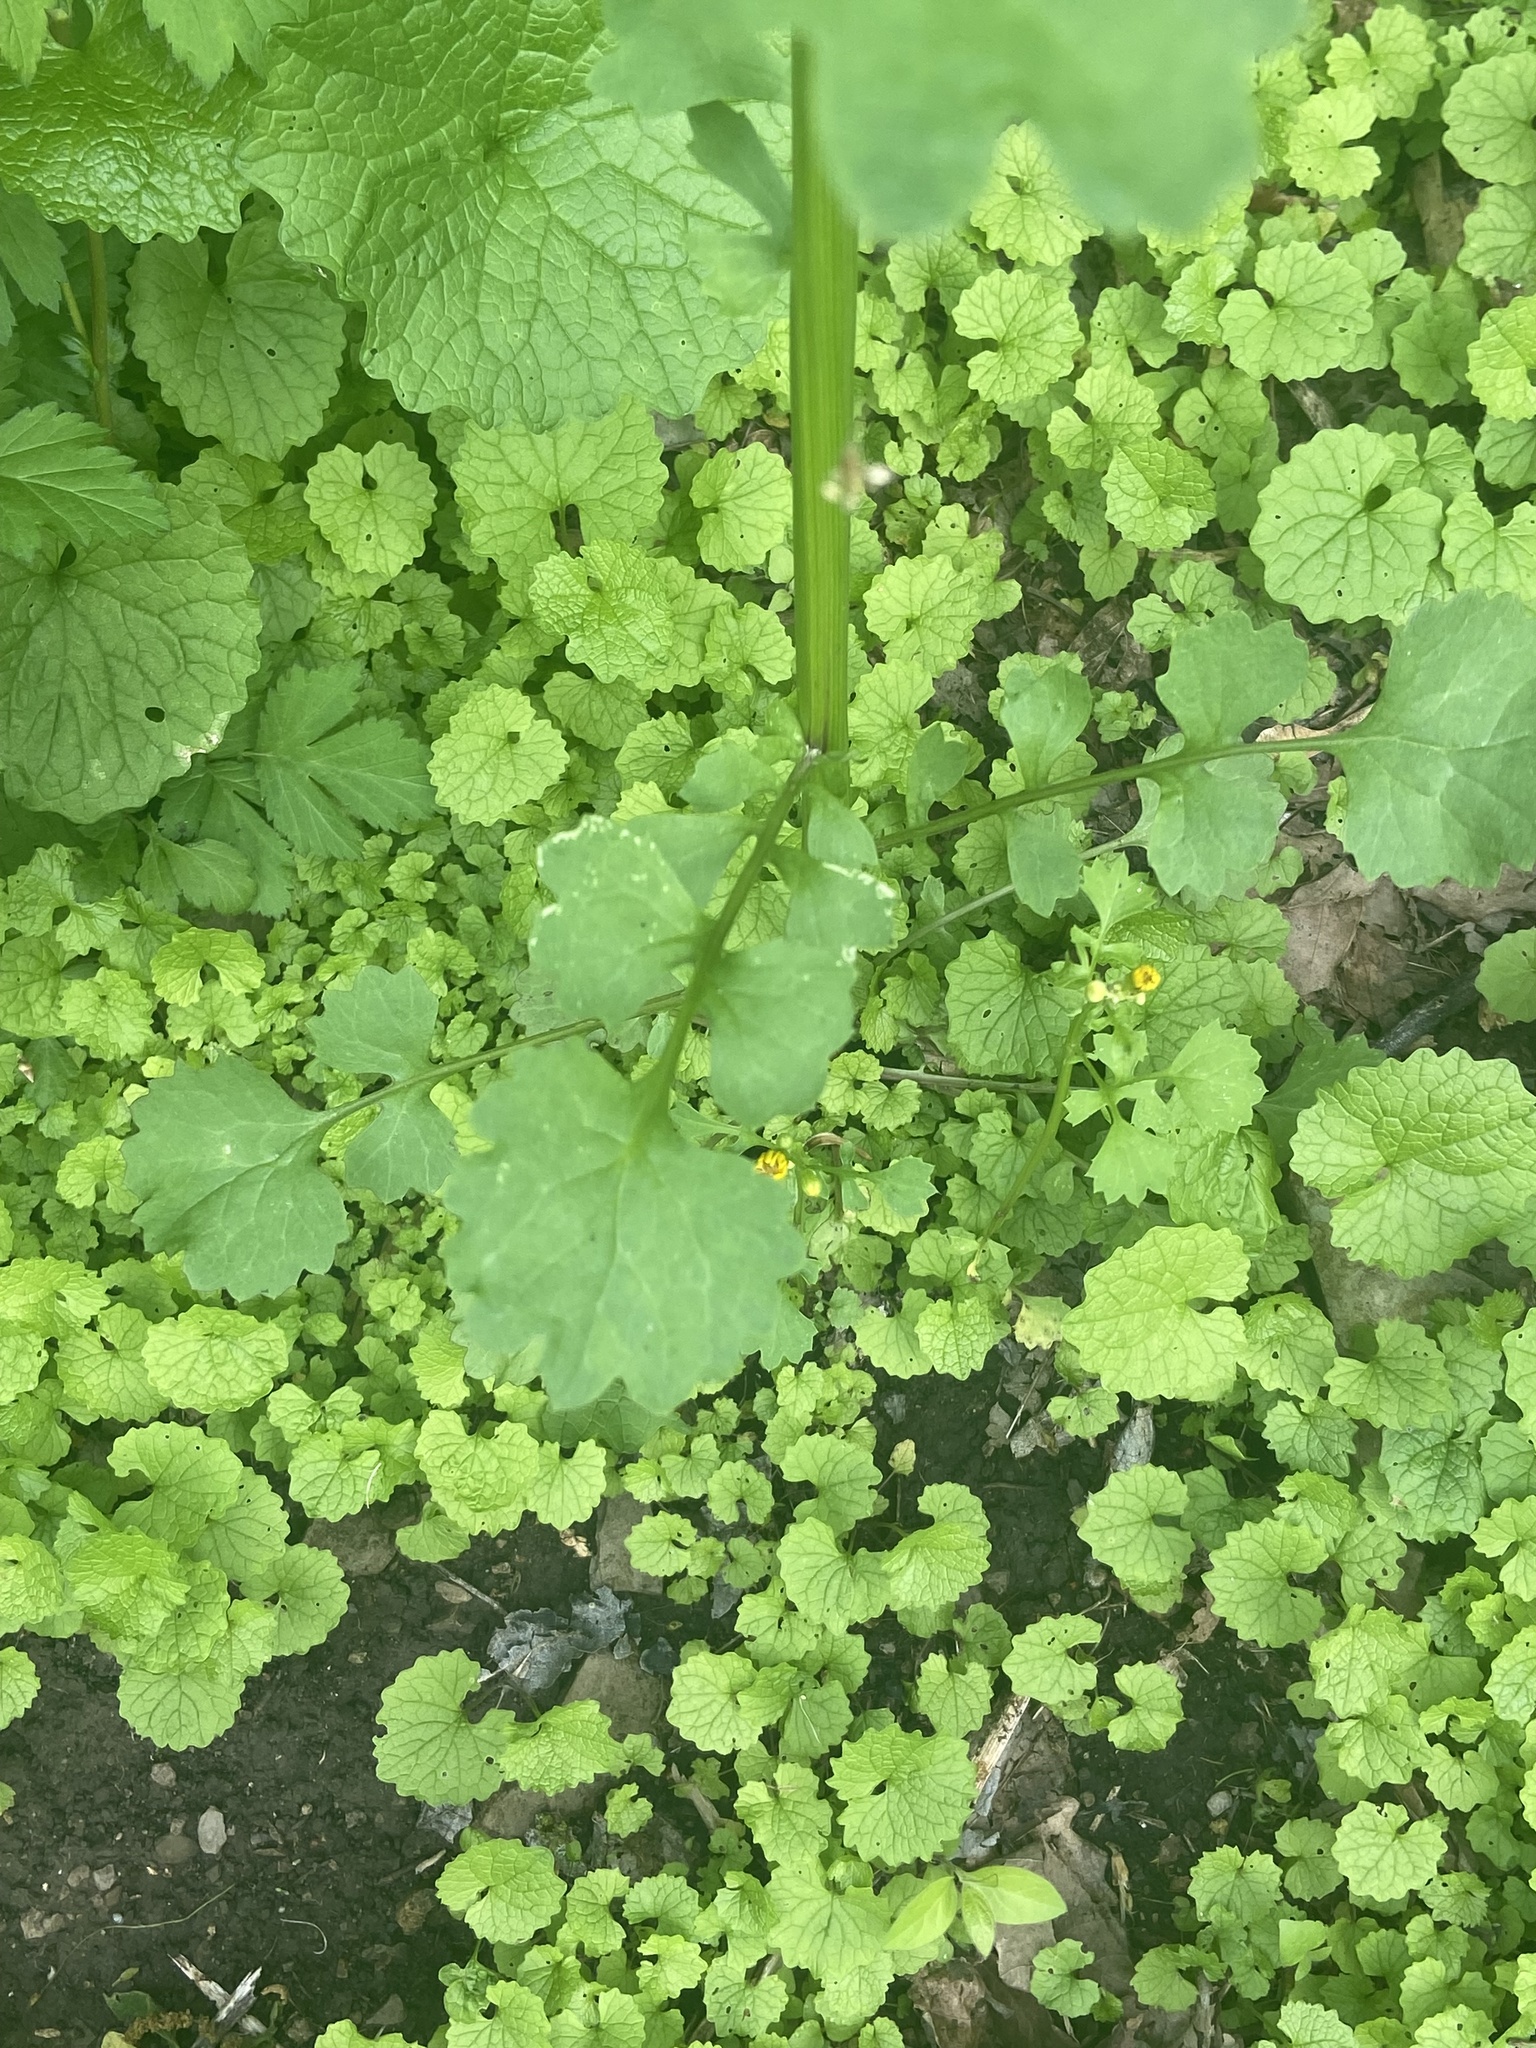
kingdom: Plantae
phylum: Tracheophyta
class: Magnoliopsida
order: Asterales
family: Asteraceae
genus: Packera
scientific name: Packera glabella
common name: Butterweed
